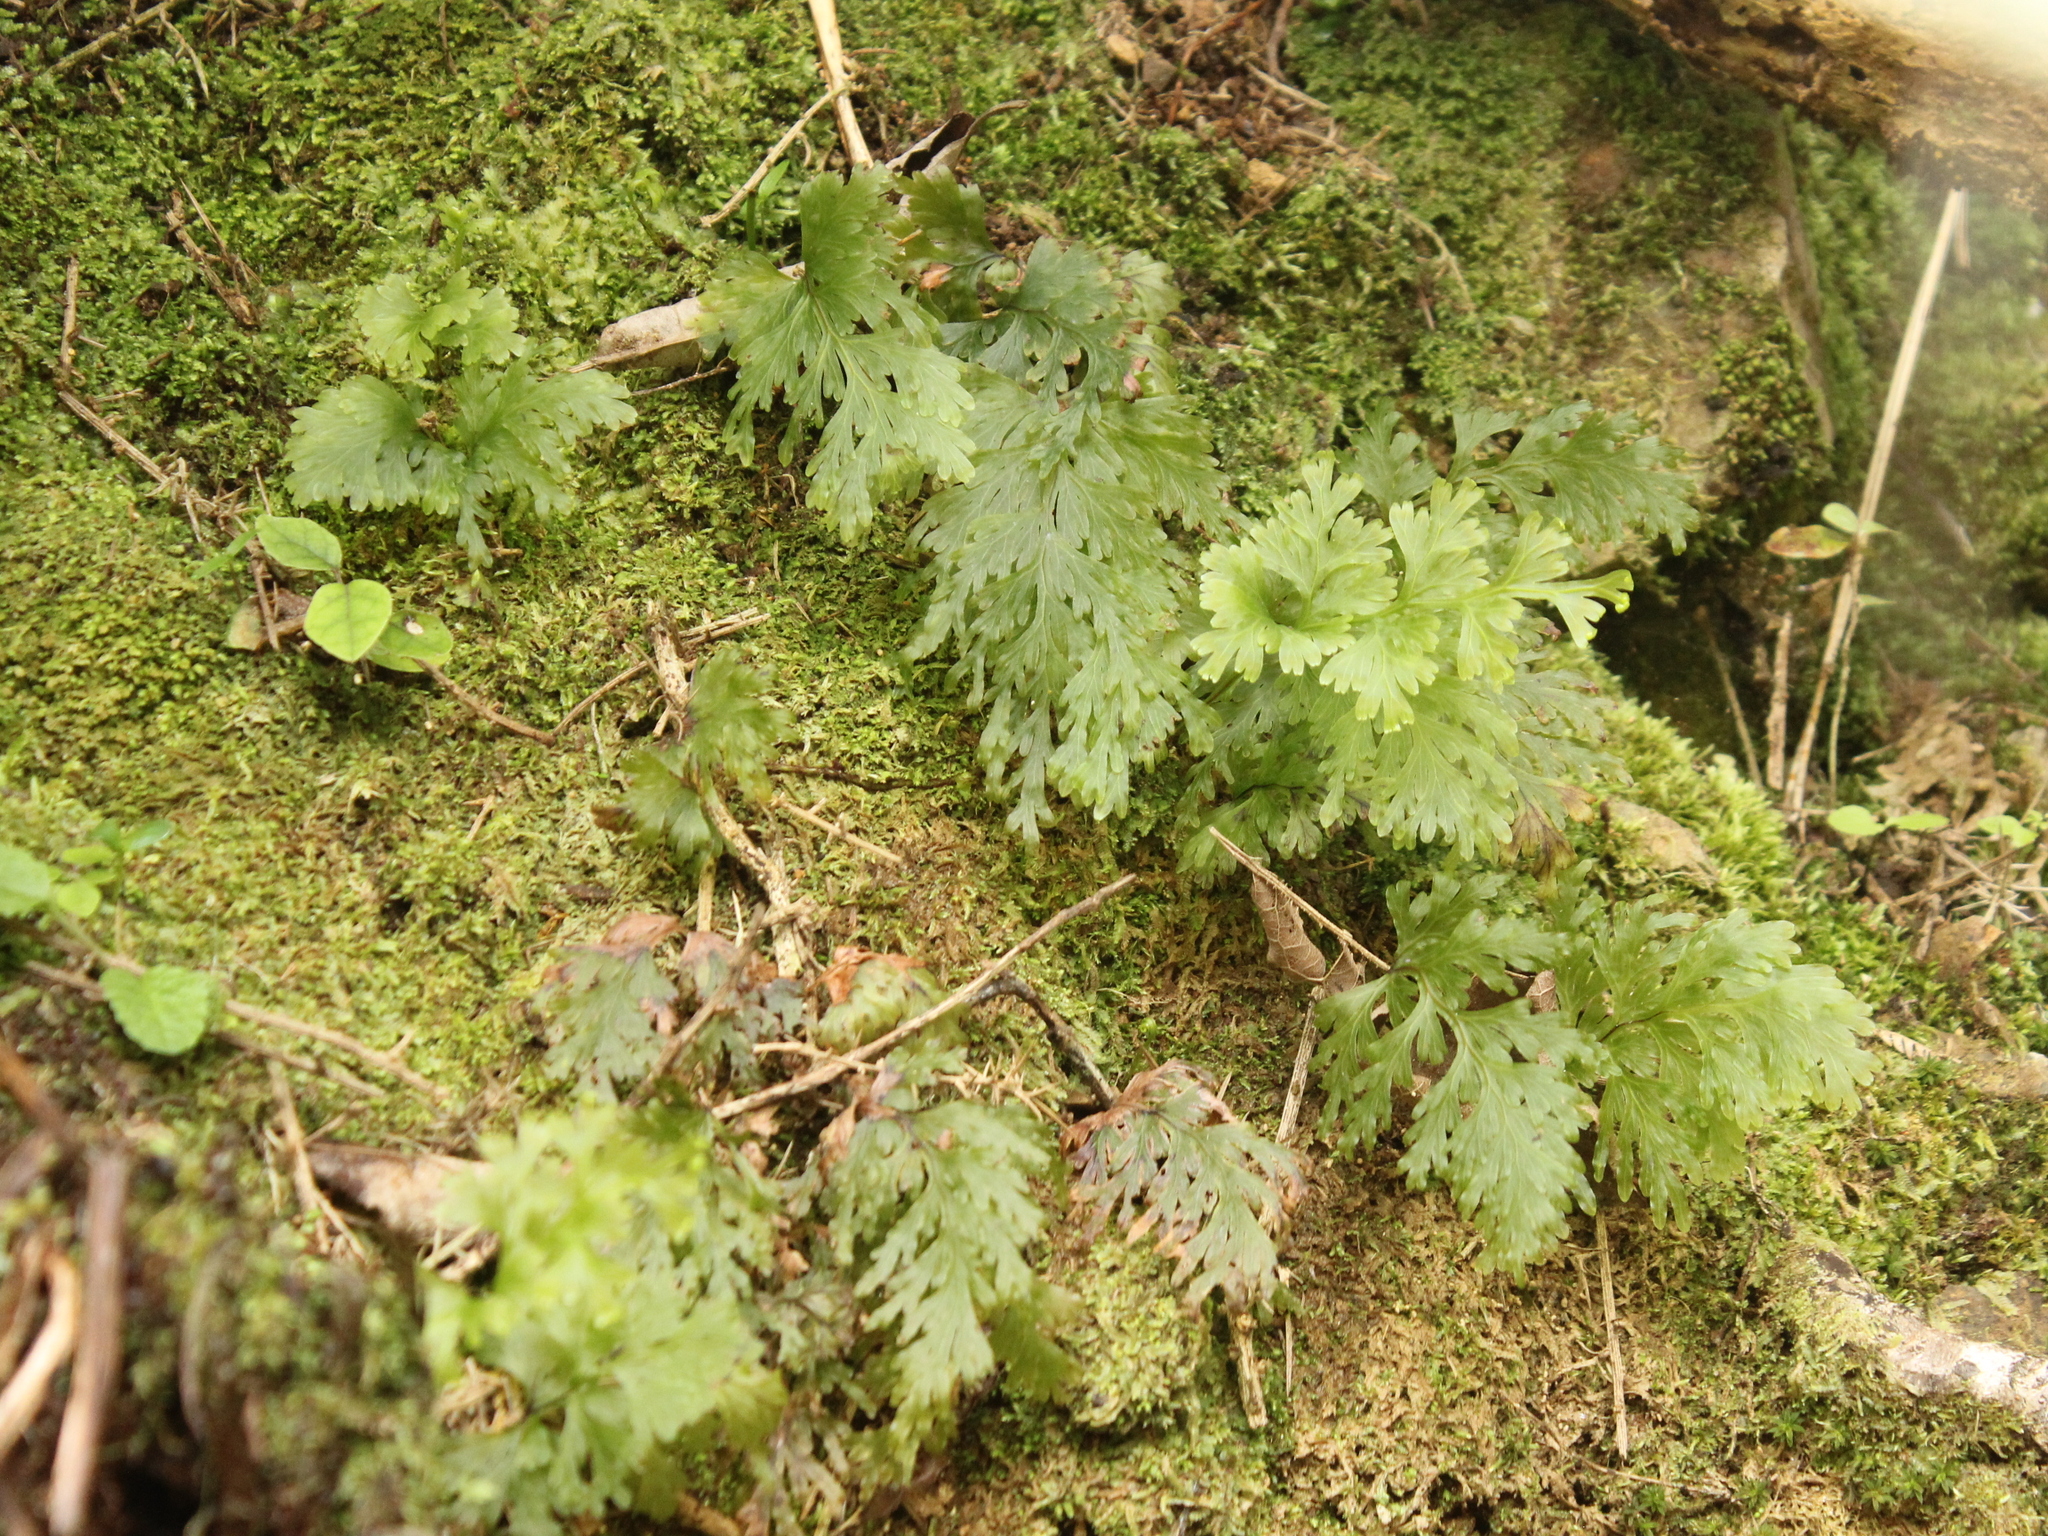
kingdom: Plantae
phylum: Tracheophyta
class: Polypodiopsida
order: Hymenophyllales
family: Hymenophyllaceae
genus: Hymenophyllum
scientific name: Hymenophyllum dilatatum
